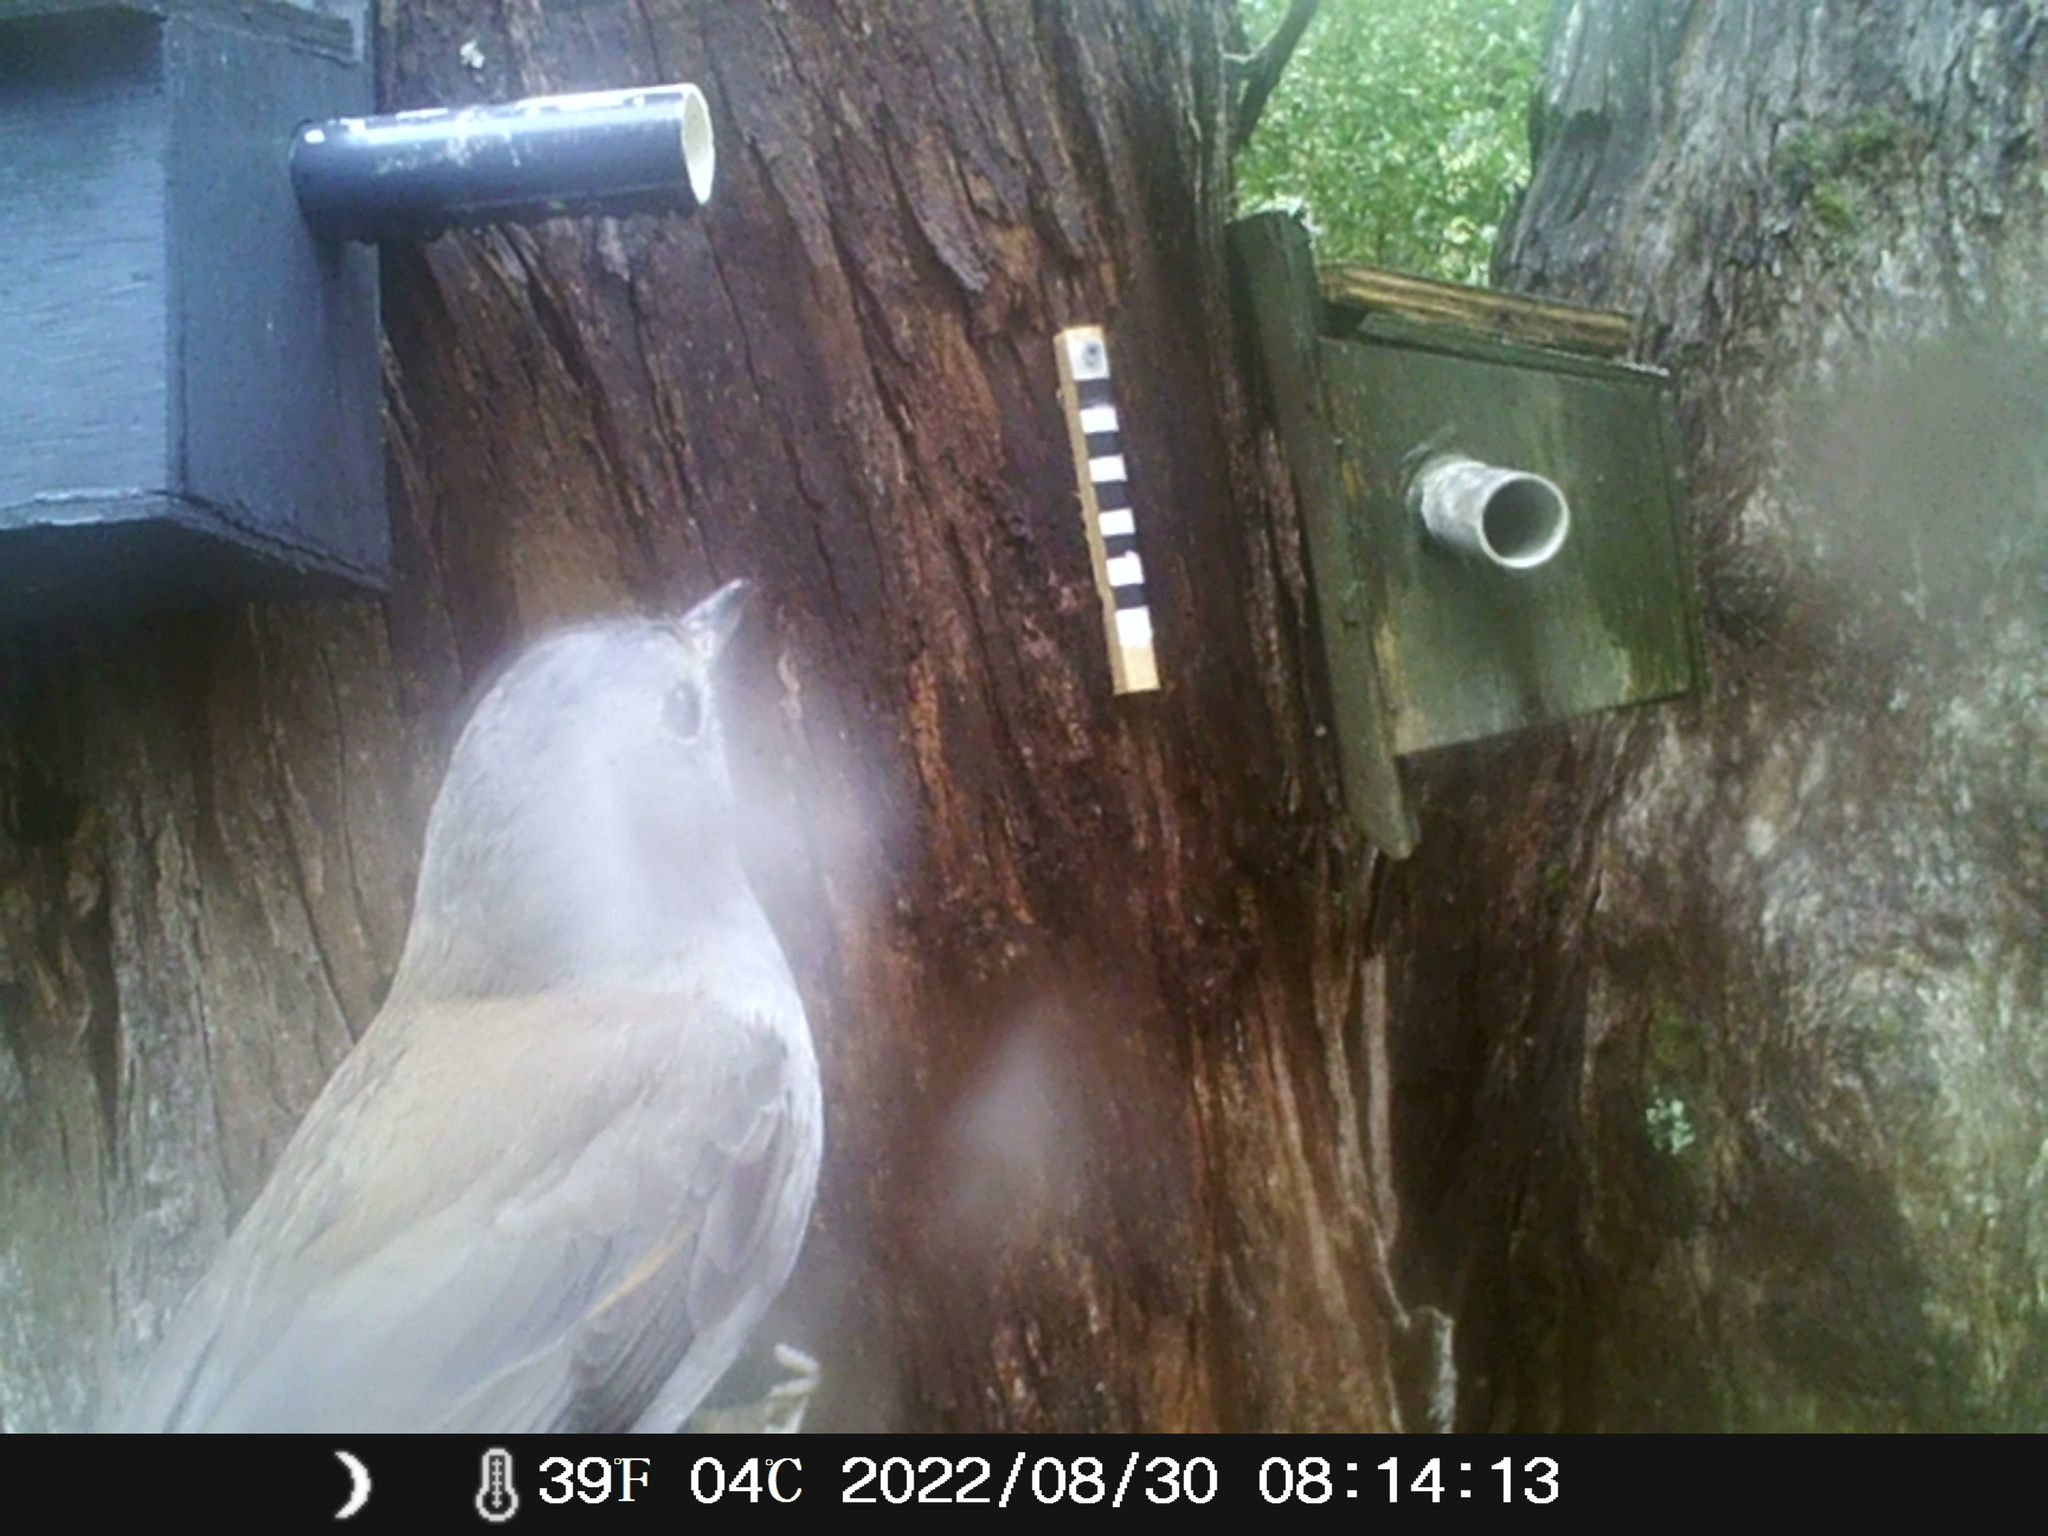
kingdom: Animalia
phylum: Chordata
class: Aves
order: Passeriformes
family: Pachycephalidae
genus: Colluricincla
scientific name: Colluricincla harmonica
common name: Grey shrikethrush
